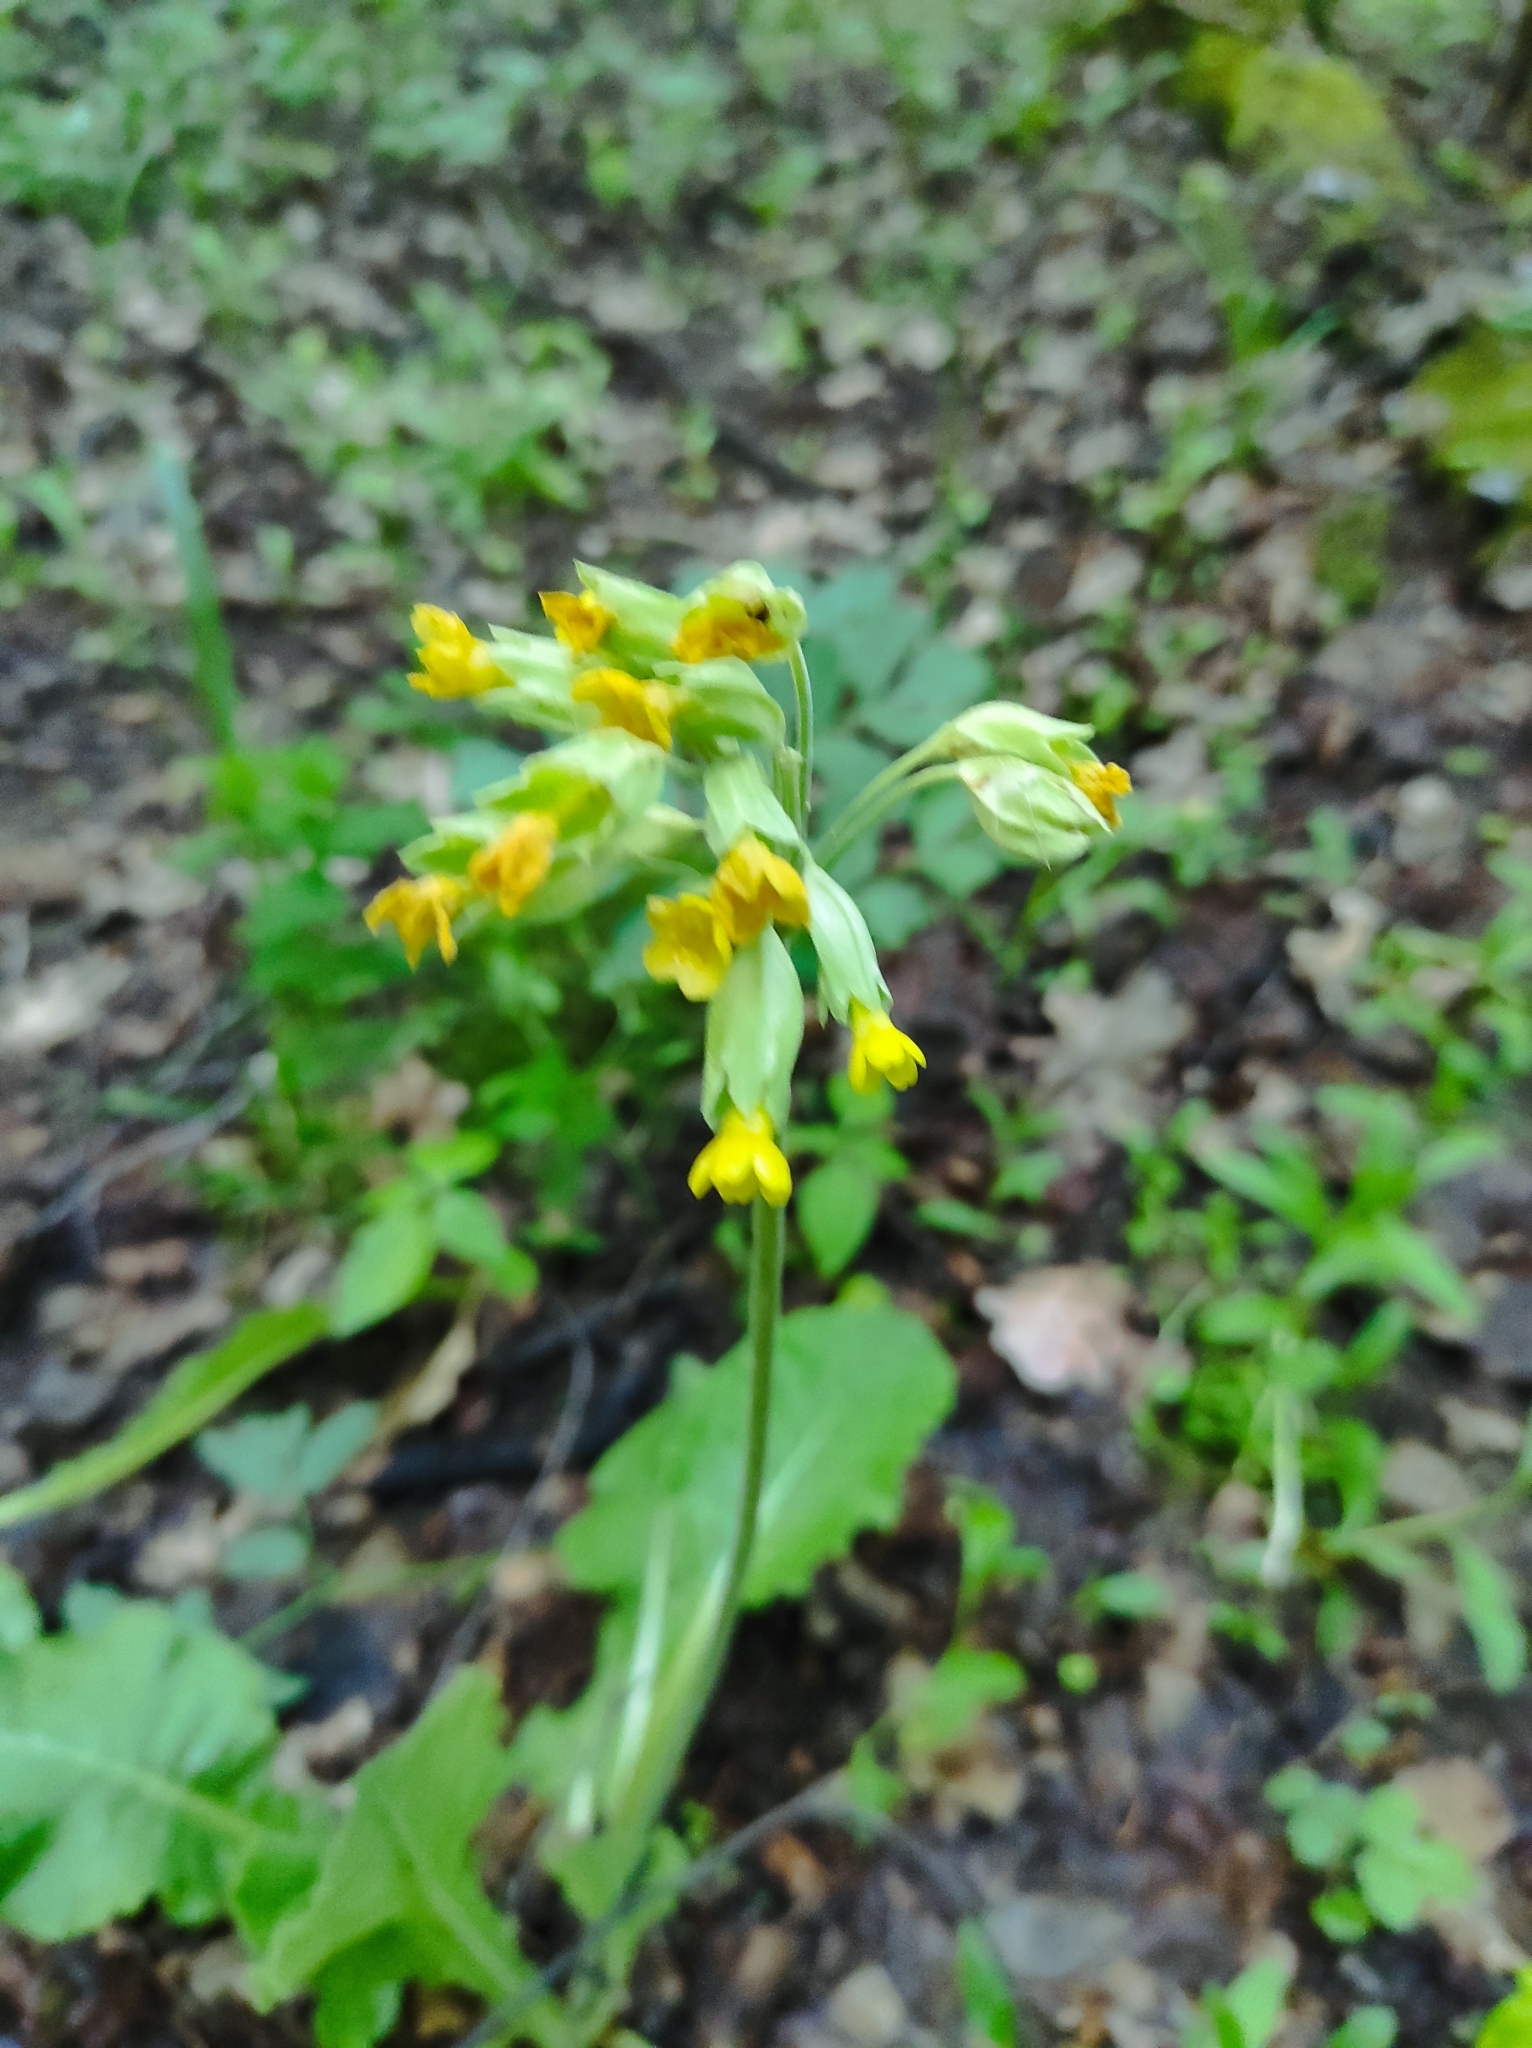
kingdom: Plantae
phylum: Tracheophyta
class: Magnoliopsida
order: Ericales
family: Primulaceae
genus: Primula
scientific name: Primula veris
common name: Cowslip
